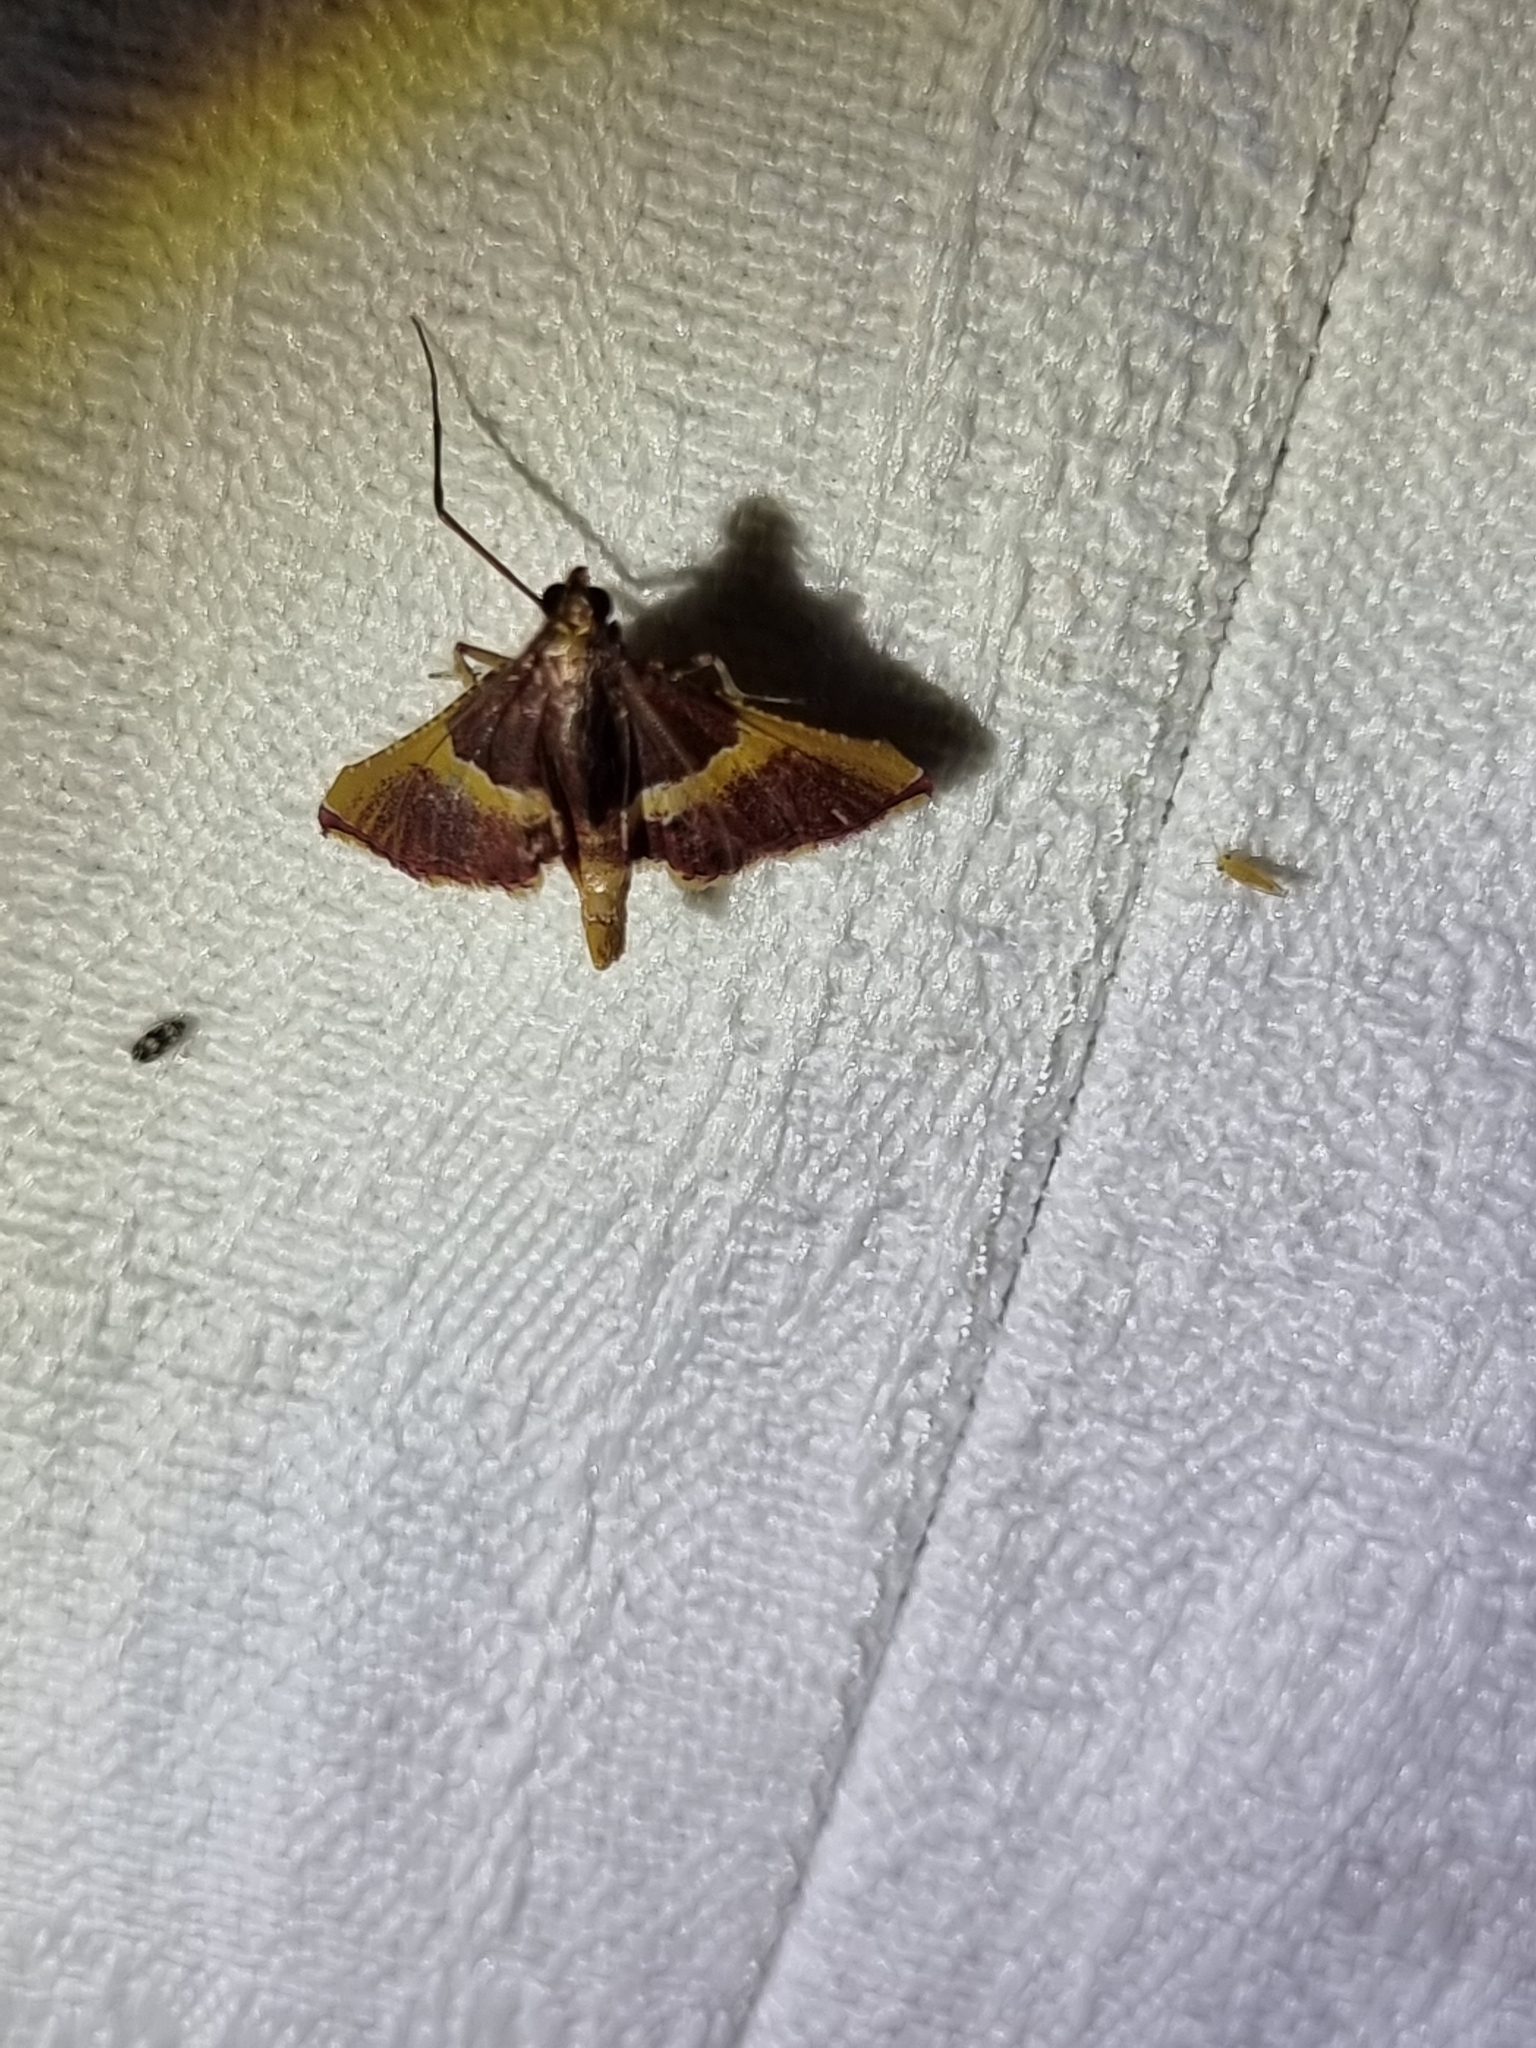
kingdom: Animalia
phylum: Arthropoda
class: Insecta
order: Lepidoptera
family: Pyralidae
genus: Endotricha
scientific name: Endotricha mesenterialis
